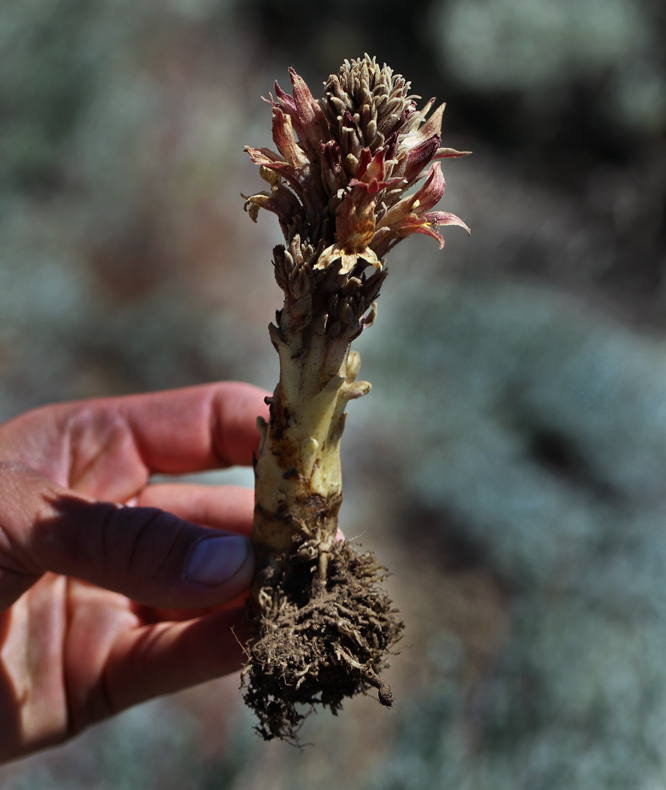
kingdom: Plantae
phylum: Tracheophyta
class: Magnoliopsida
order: Lamiales
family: Orobanchaceae
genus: Aphyllon
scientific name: Aphyllon californicum
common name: California broomrape
